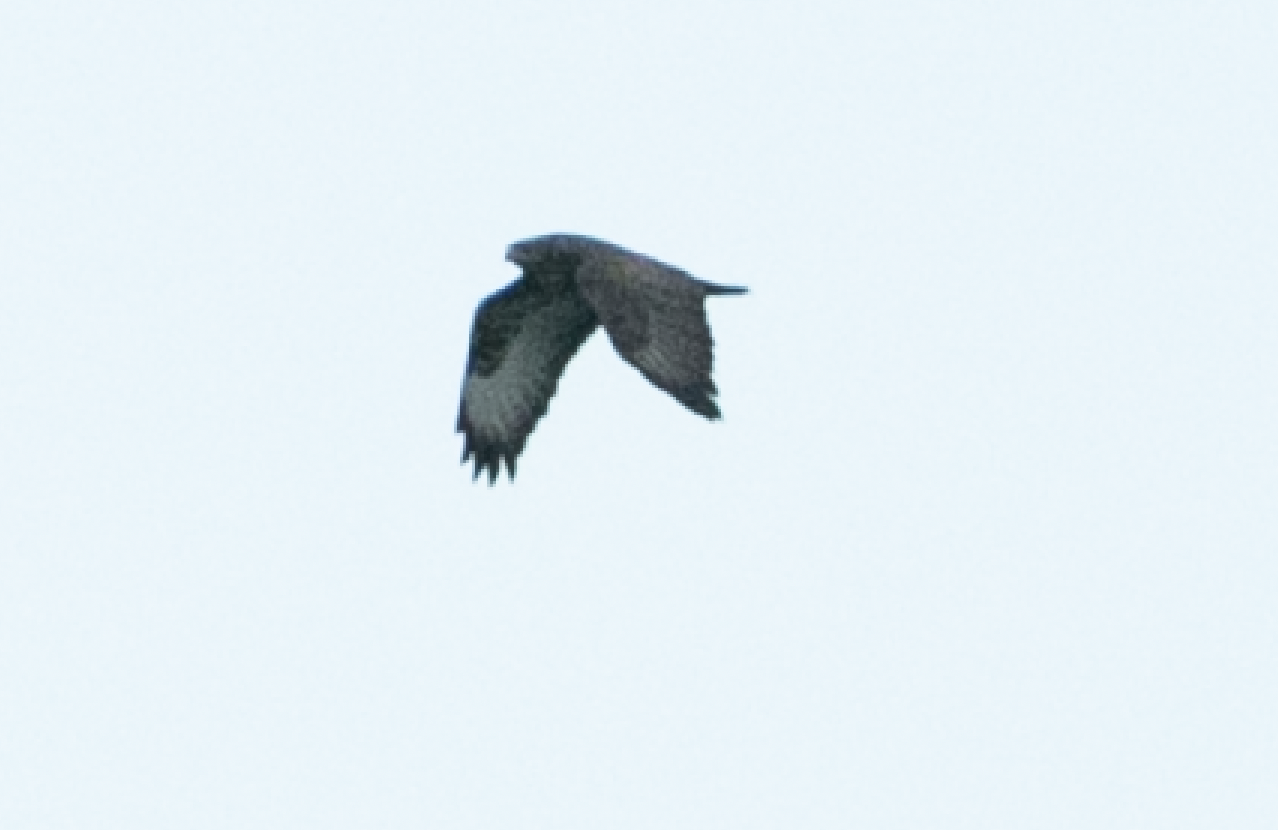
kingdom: Animalia
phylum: Chordata
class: Aves
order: Accipitriformes
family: Accipitridae
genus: Buteo
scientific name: Buteo buteo
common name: Common buzzard
